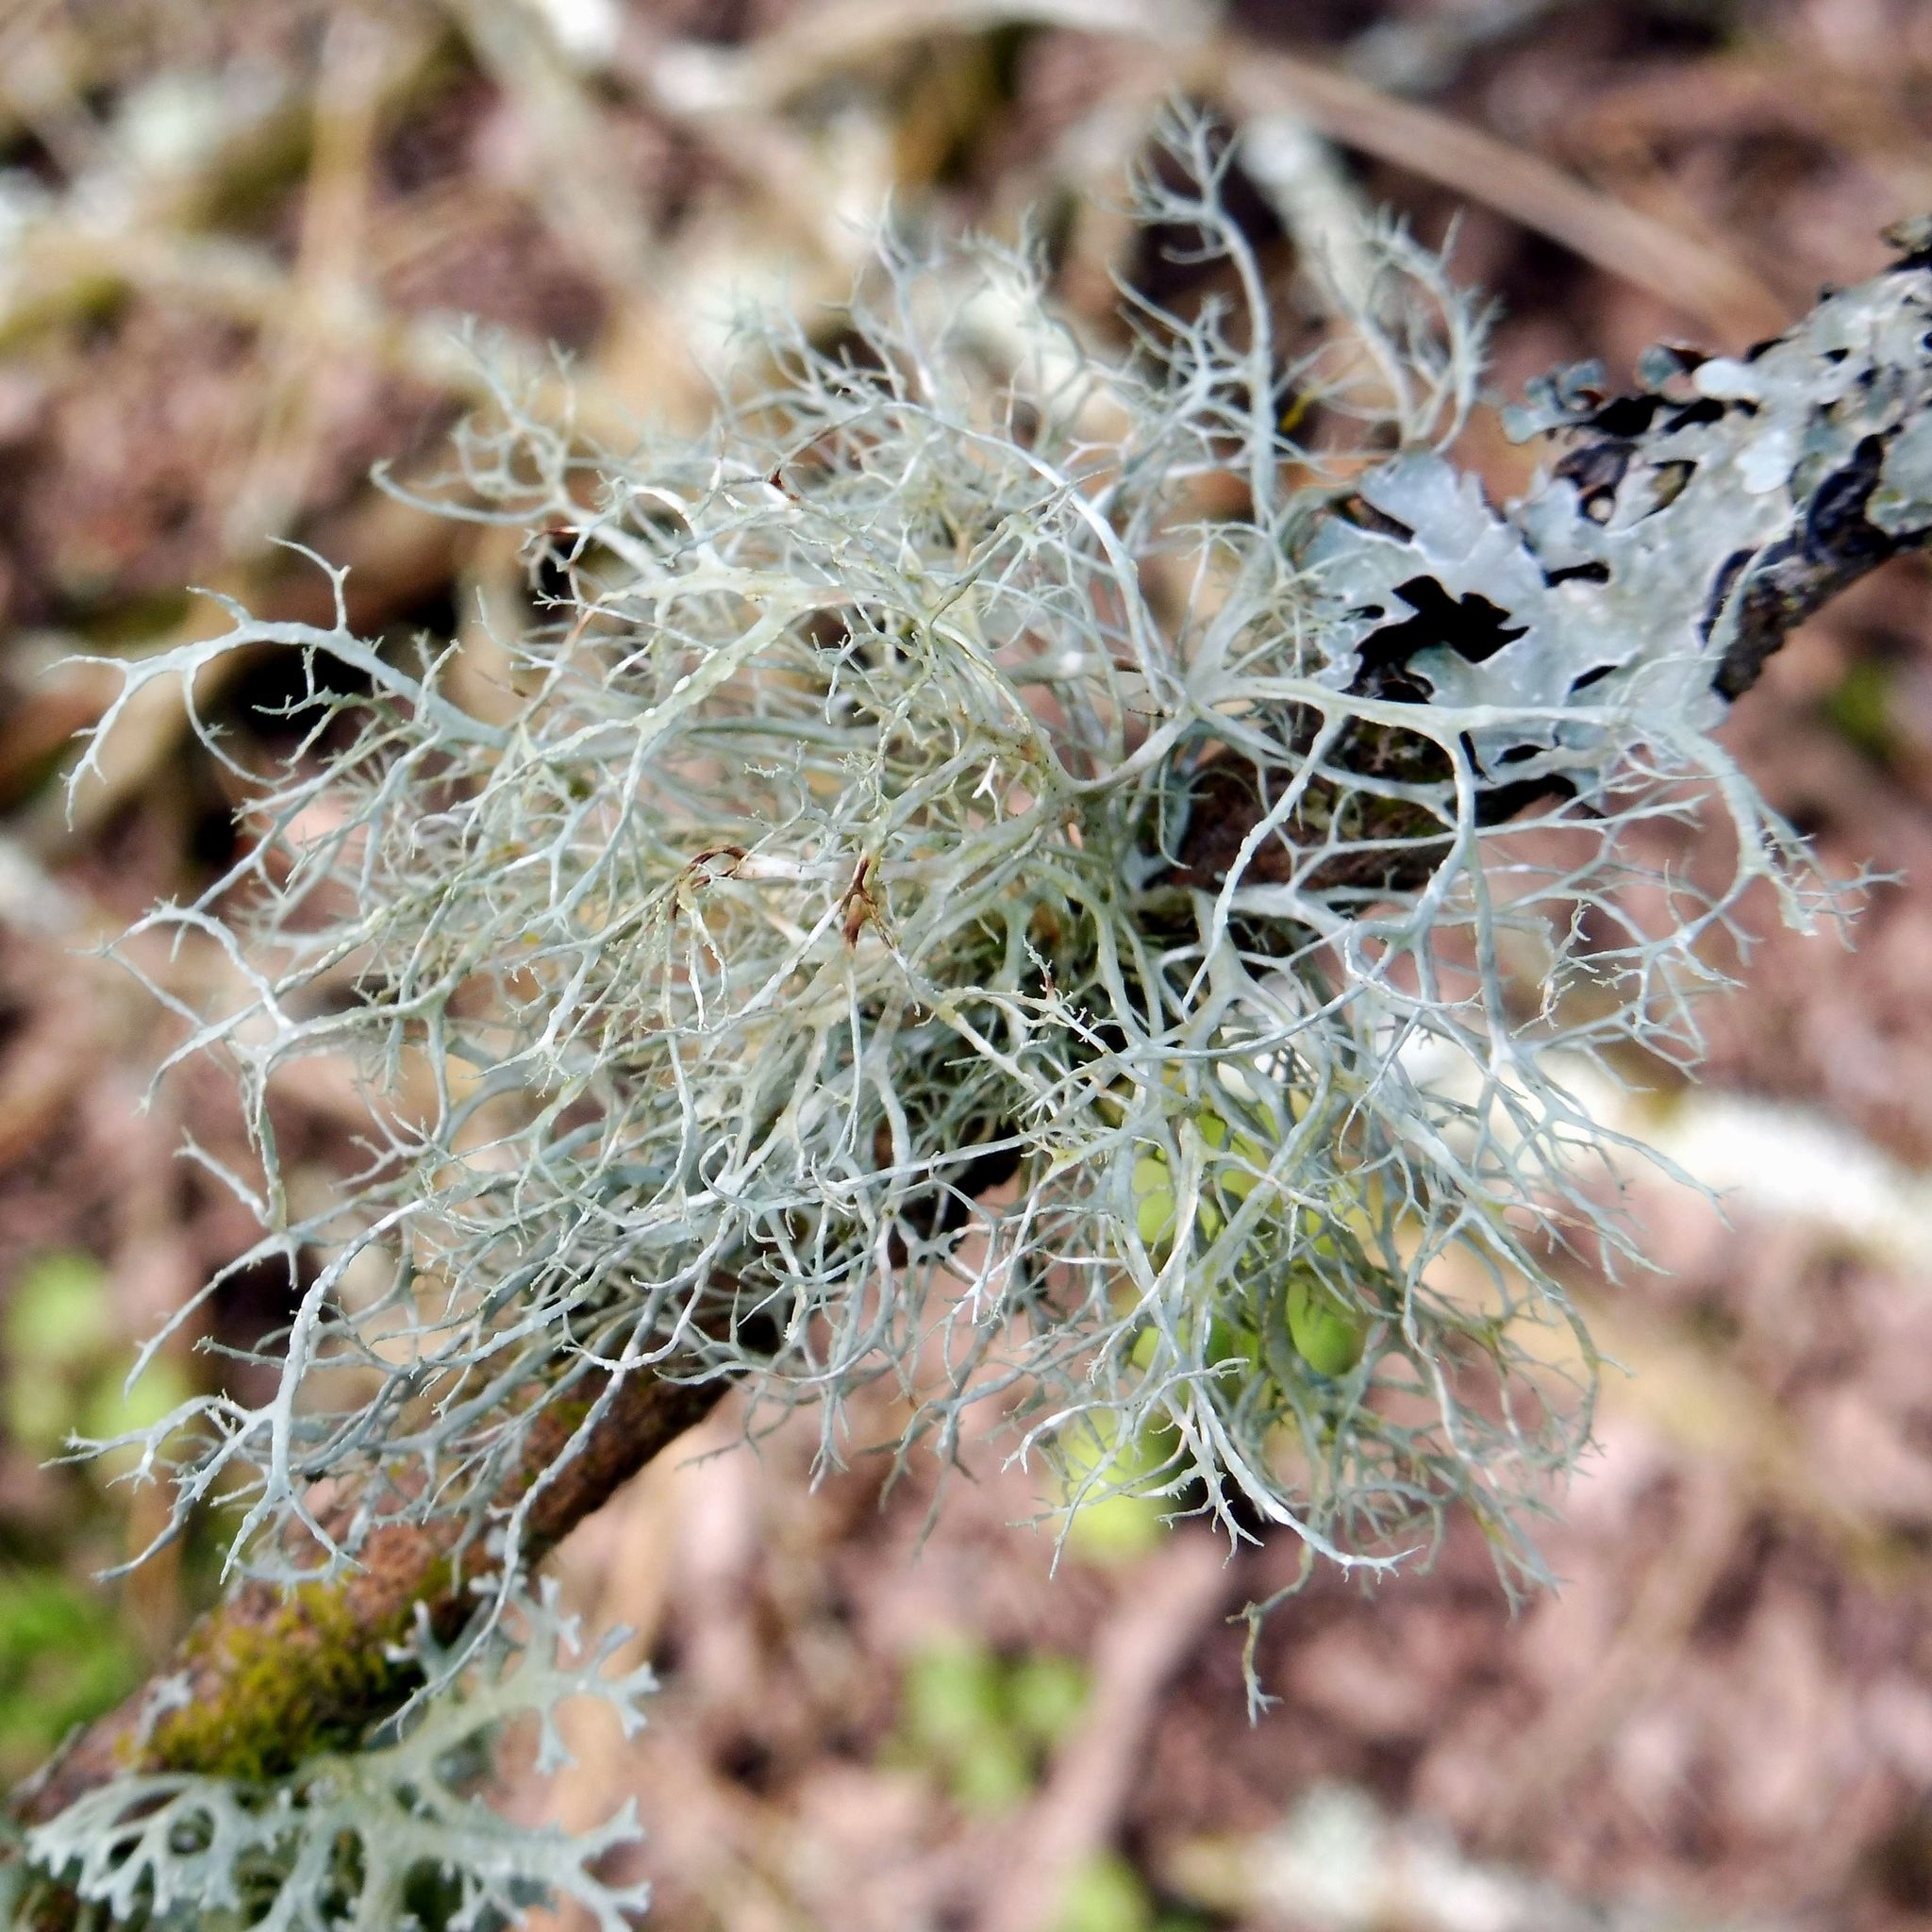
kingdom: Fungi
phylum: Ascomycota
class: Lecanoromycetes
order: Lecanorales
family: Ramalinaceae
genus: Ramalina
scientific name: Ramalina farinacea
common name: Farinose cartilage lichen
